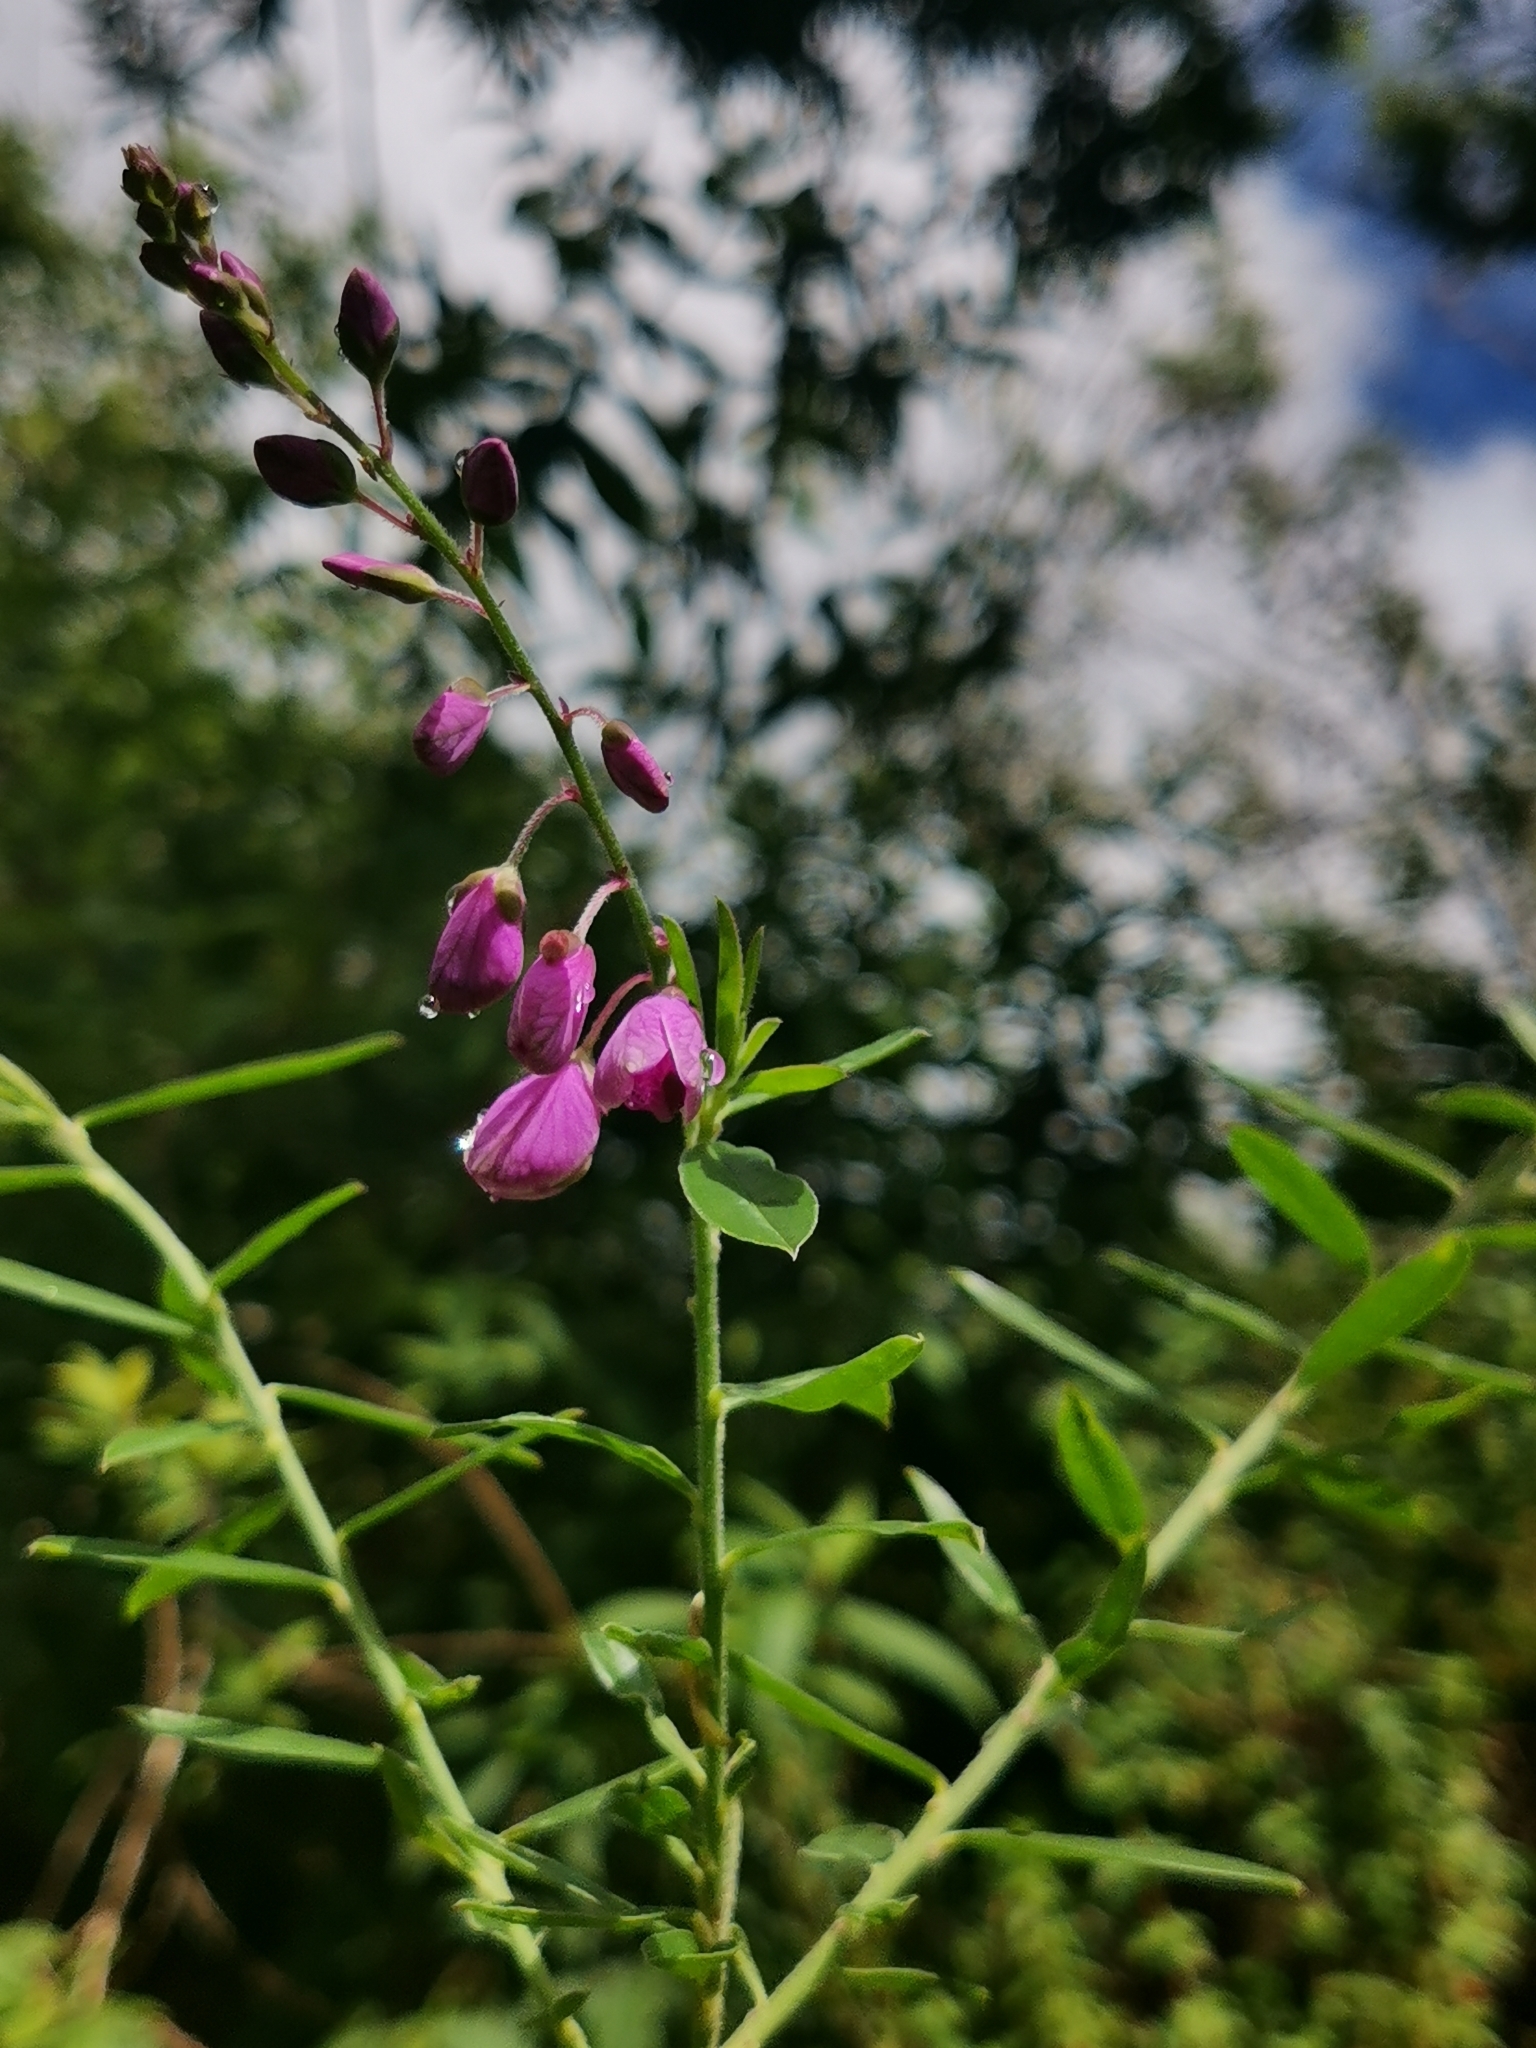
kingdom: Plantae
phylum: Tracheophyta
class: Magnoliopsida
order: Fabales
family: Polygalaceae
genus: Polygala
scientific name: Polygala virgata
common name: Milkwort
